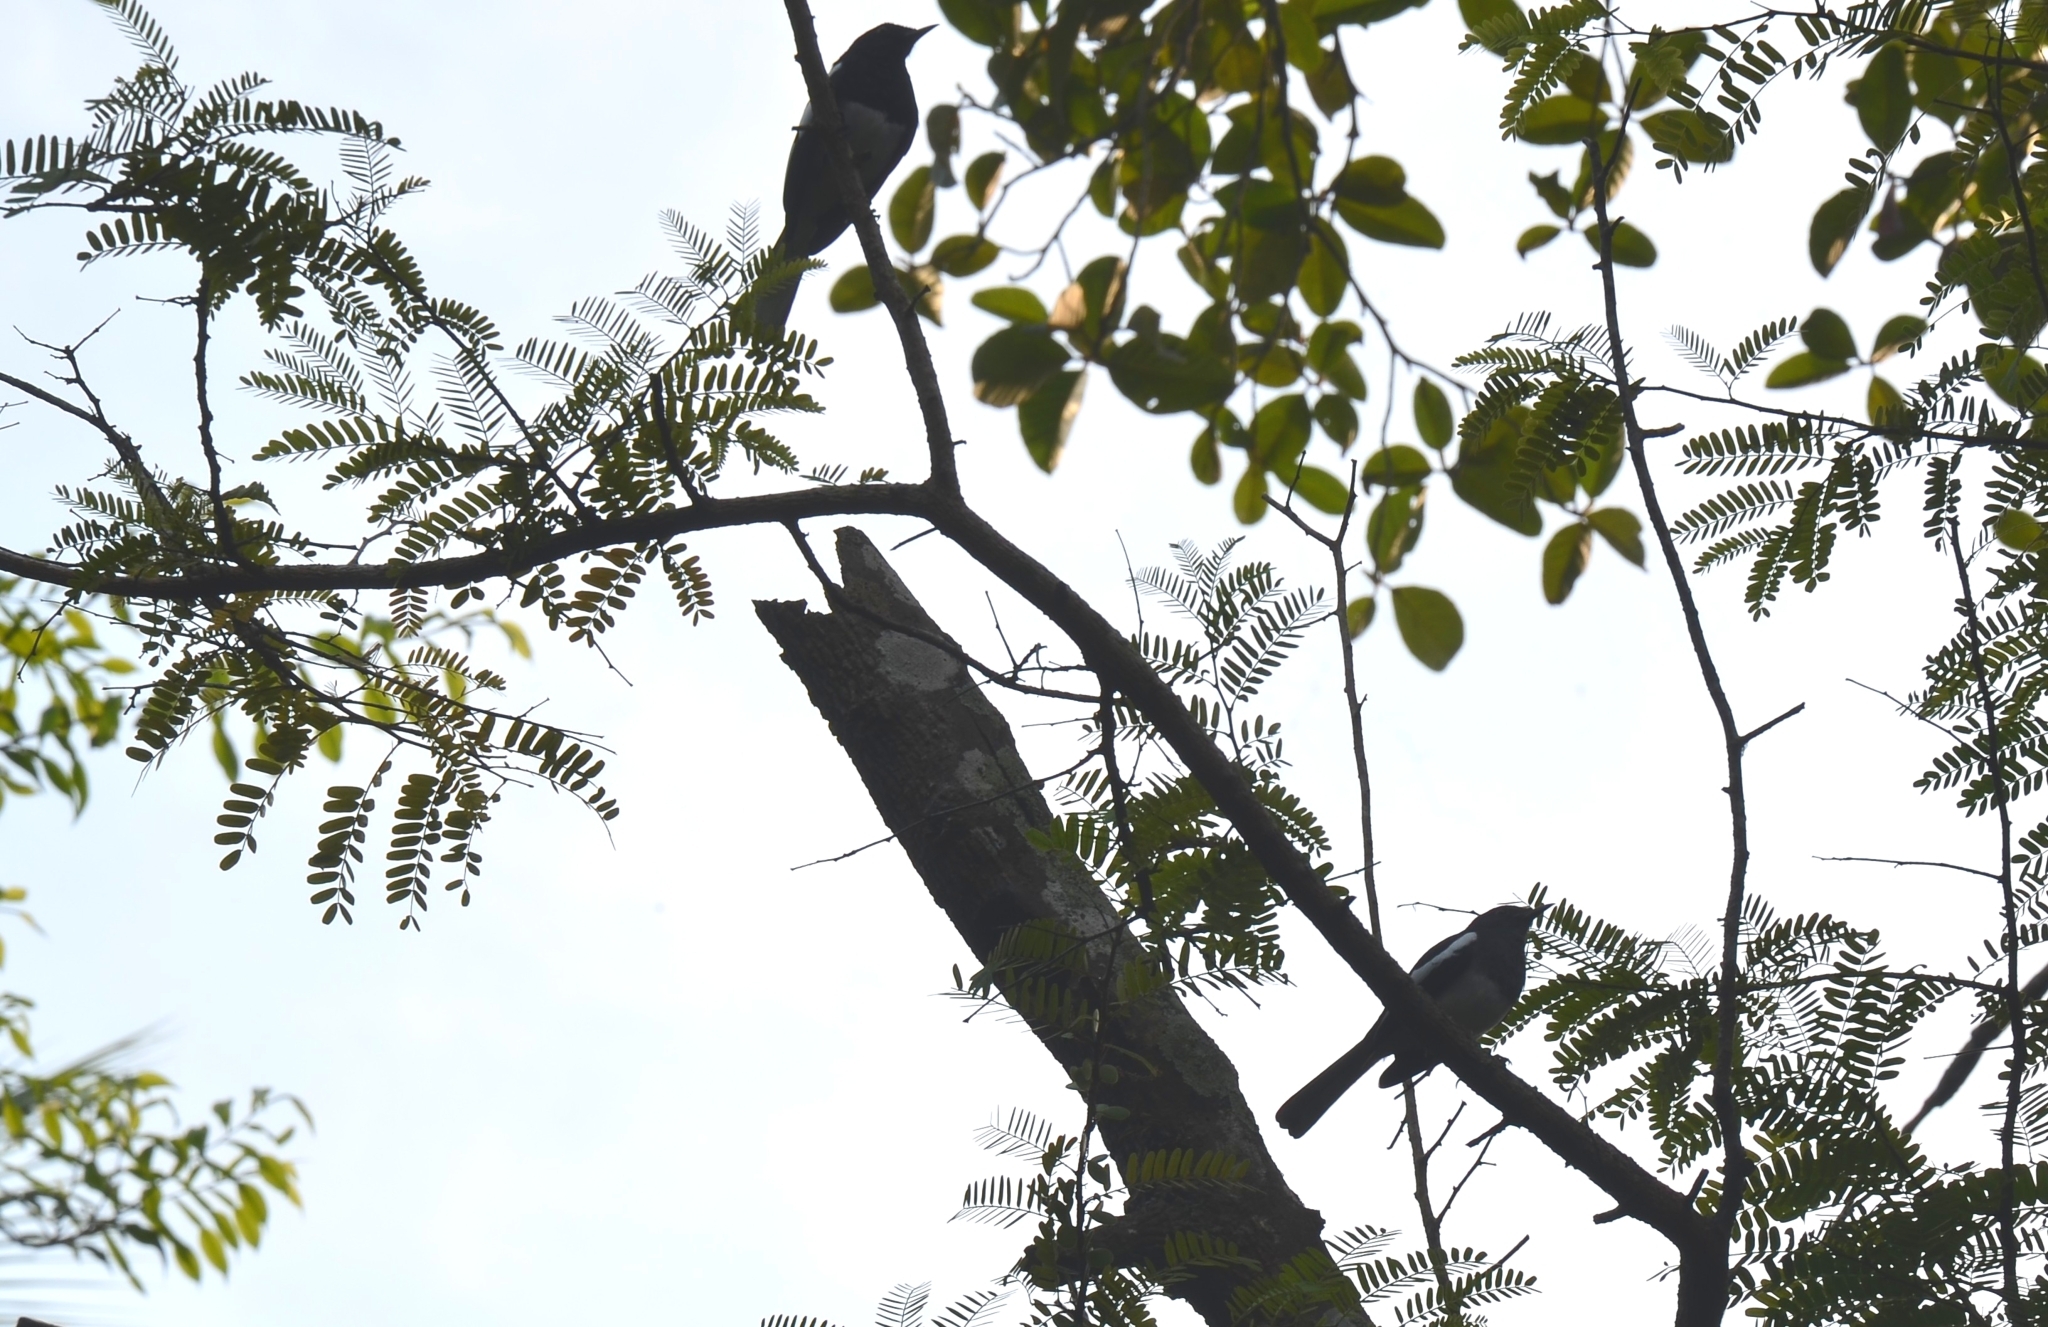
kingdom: Animalia
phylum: Chordata
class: Aves
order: Passeriformes
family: Muscicapidae
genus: Copsychus
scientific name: Copsychus saularis
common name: Oriental magpie-robin
